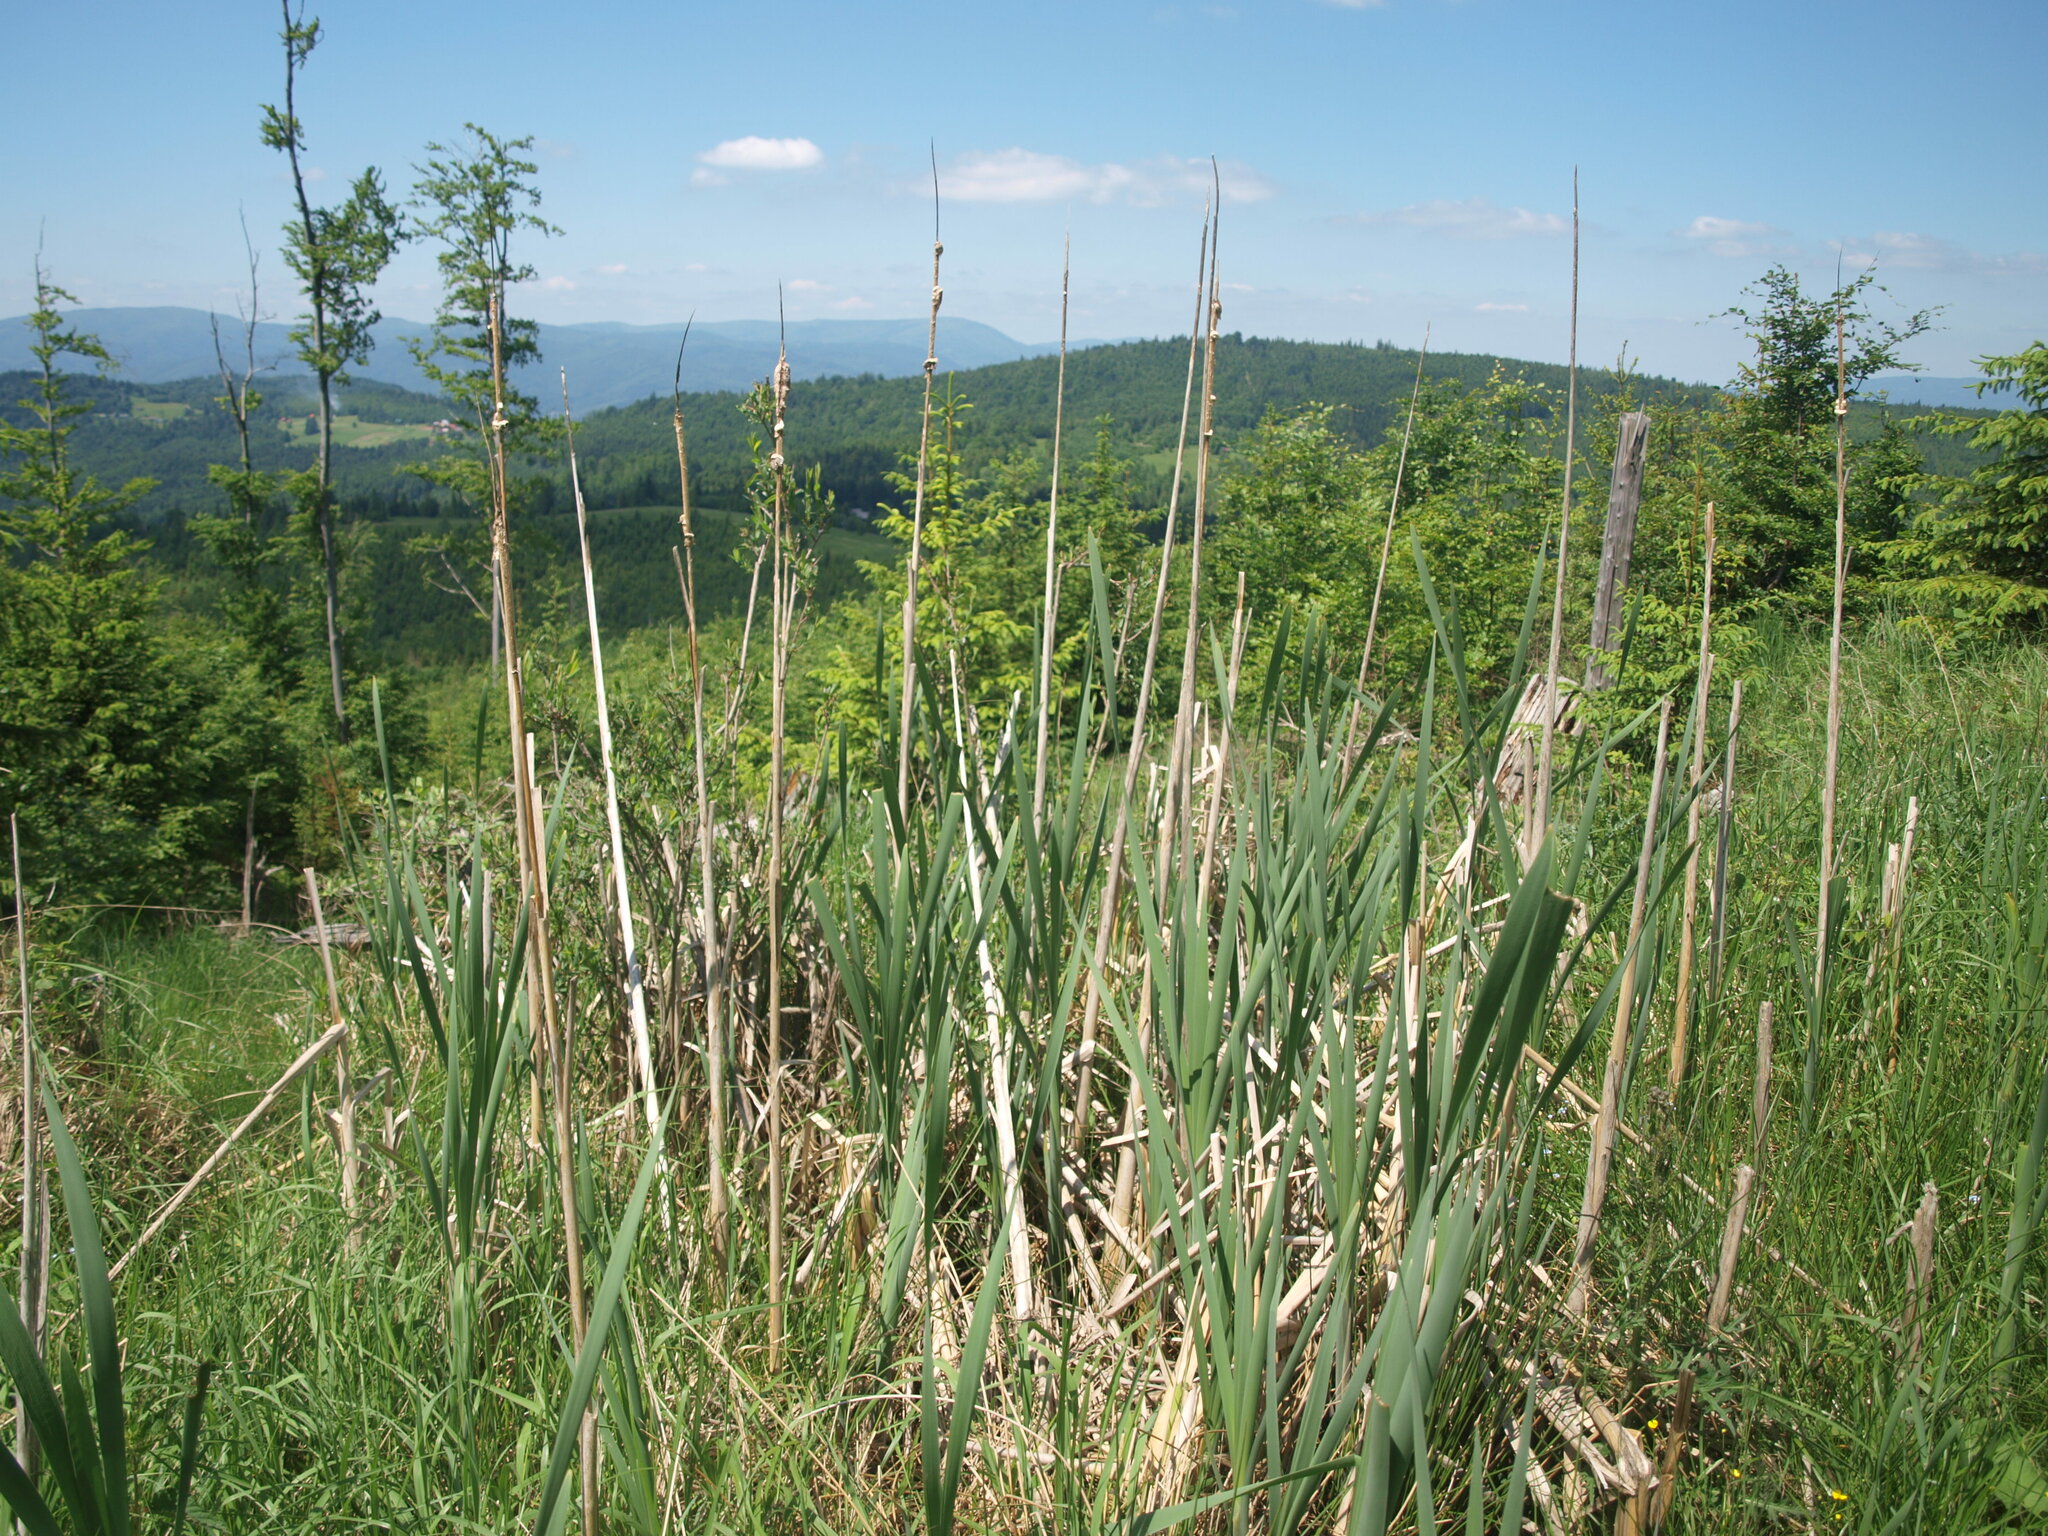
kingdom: Plantae
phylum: Tracheophyta
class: Liliopsida
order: Poales
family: Typhaceae
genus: Typha
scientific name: Typha latifolia
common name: Broadleaf cattail
